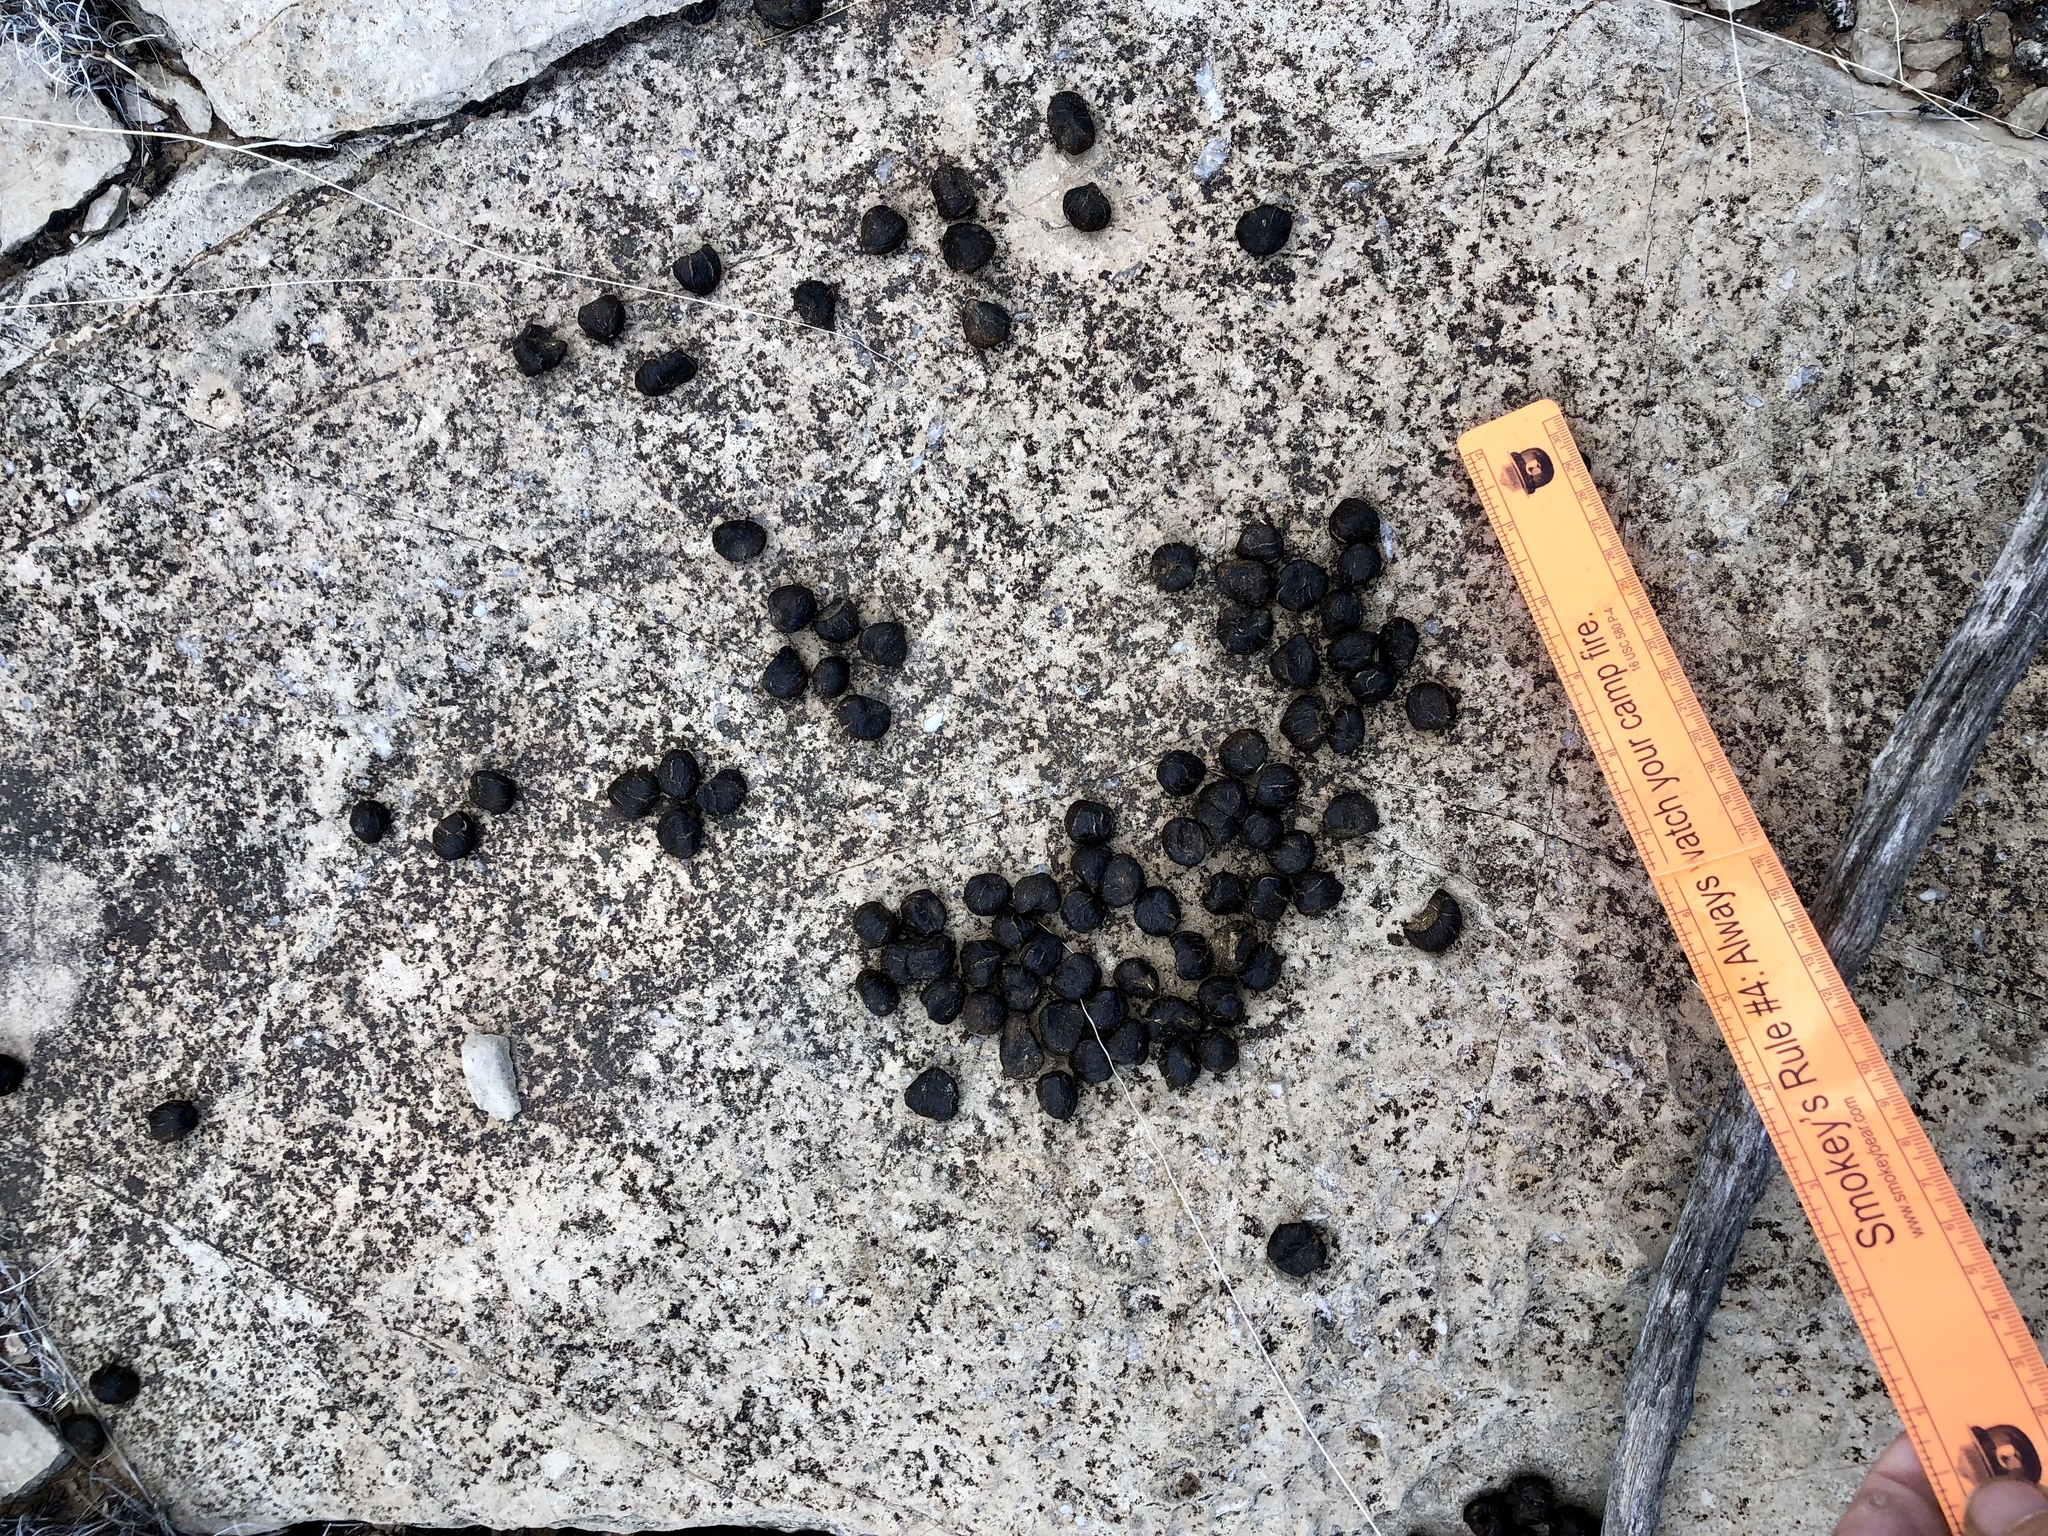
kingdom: Animalia
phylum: Chordata
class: Mammalia
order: Artiodactyla
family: Cervidae
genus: Odocoileus
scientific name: Odocoileus hemionus
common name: Mule deer
